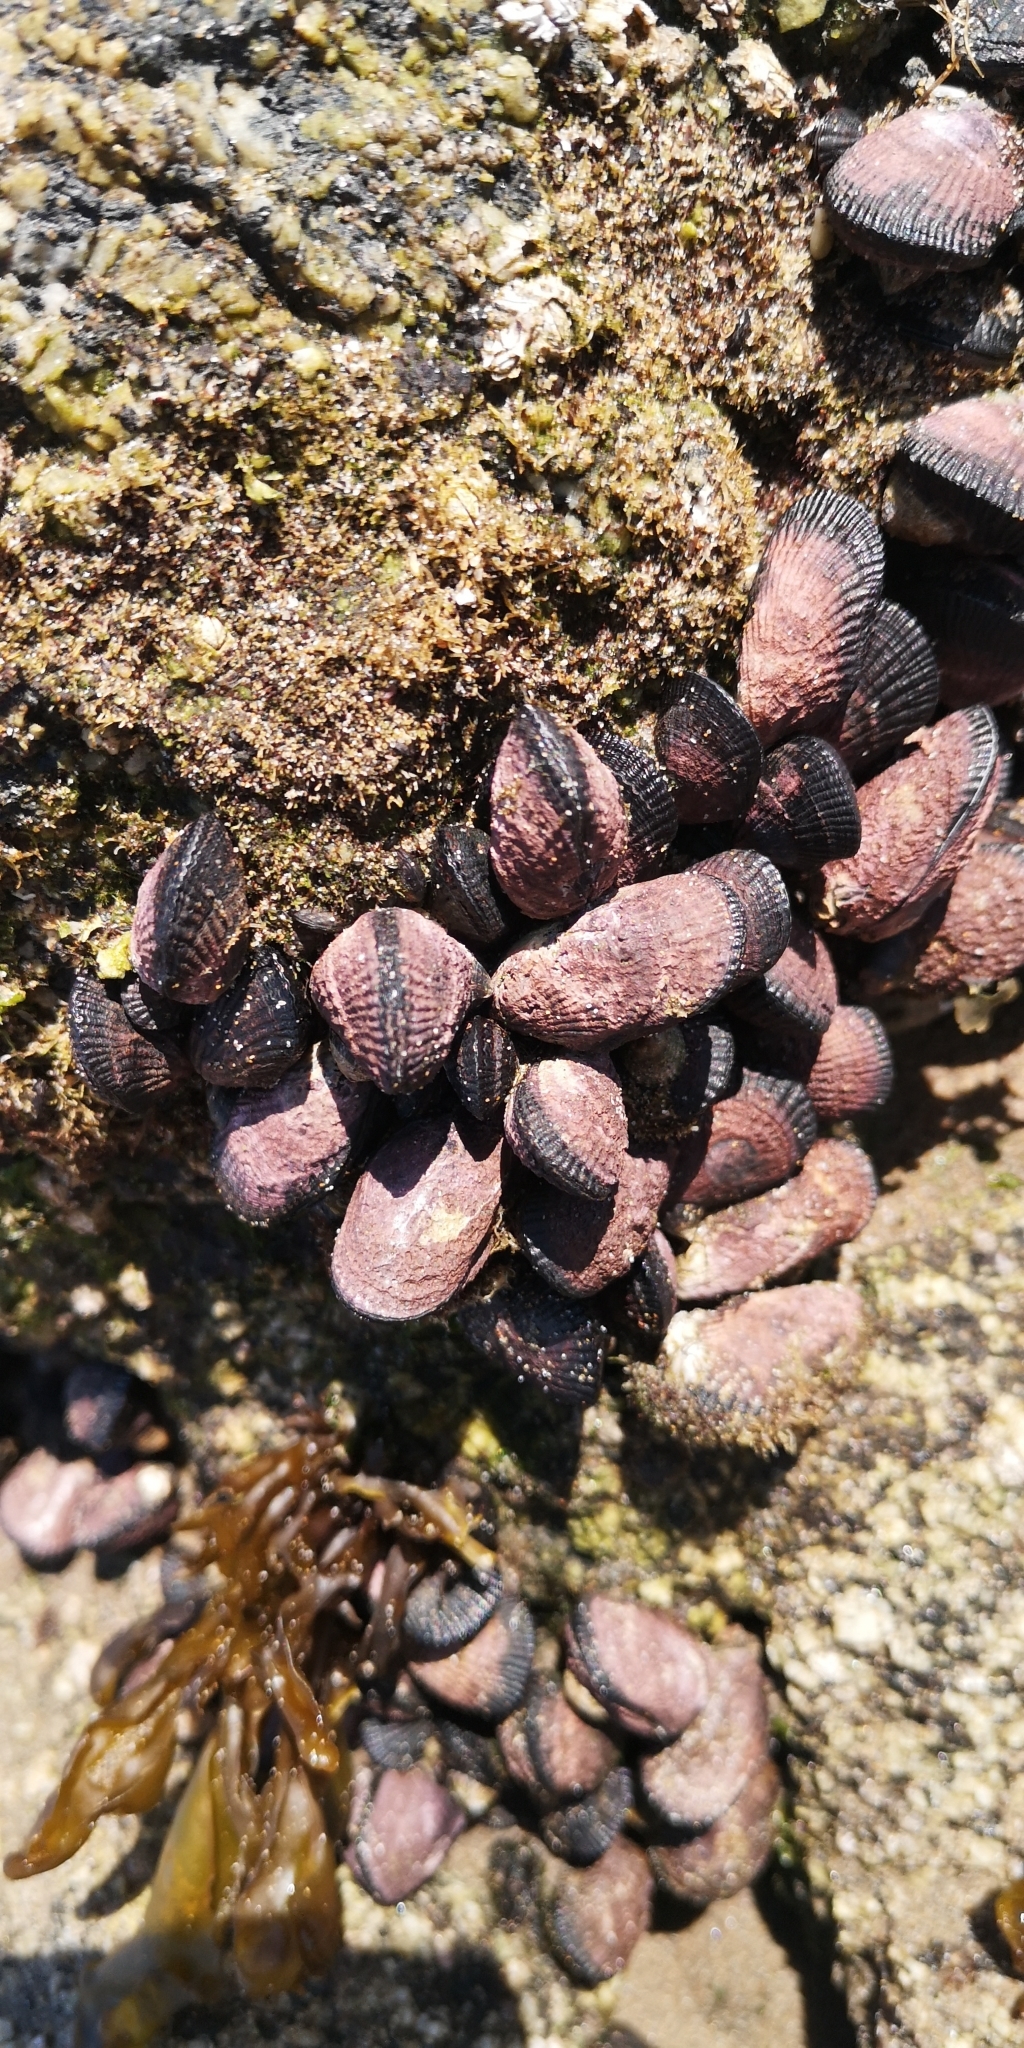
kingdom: Animalia
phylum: Mollusca
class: Bivalvia
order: Mytilida
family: Mytilidae
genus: Perumytilus
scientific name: Perumytilus purpuratus
